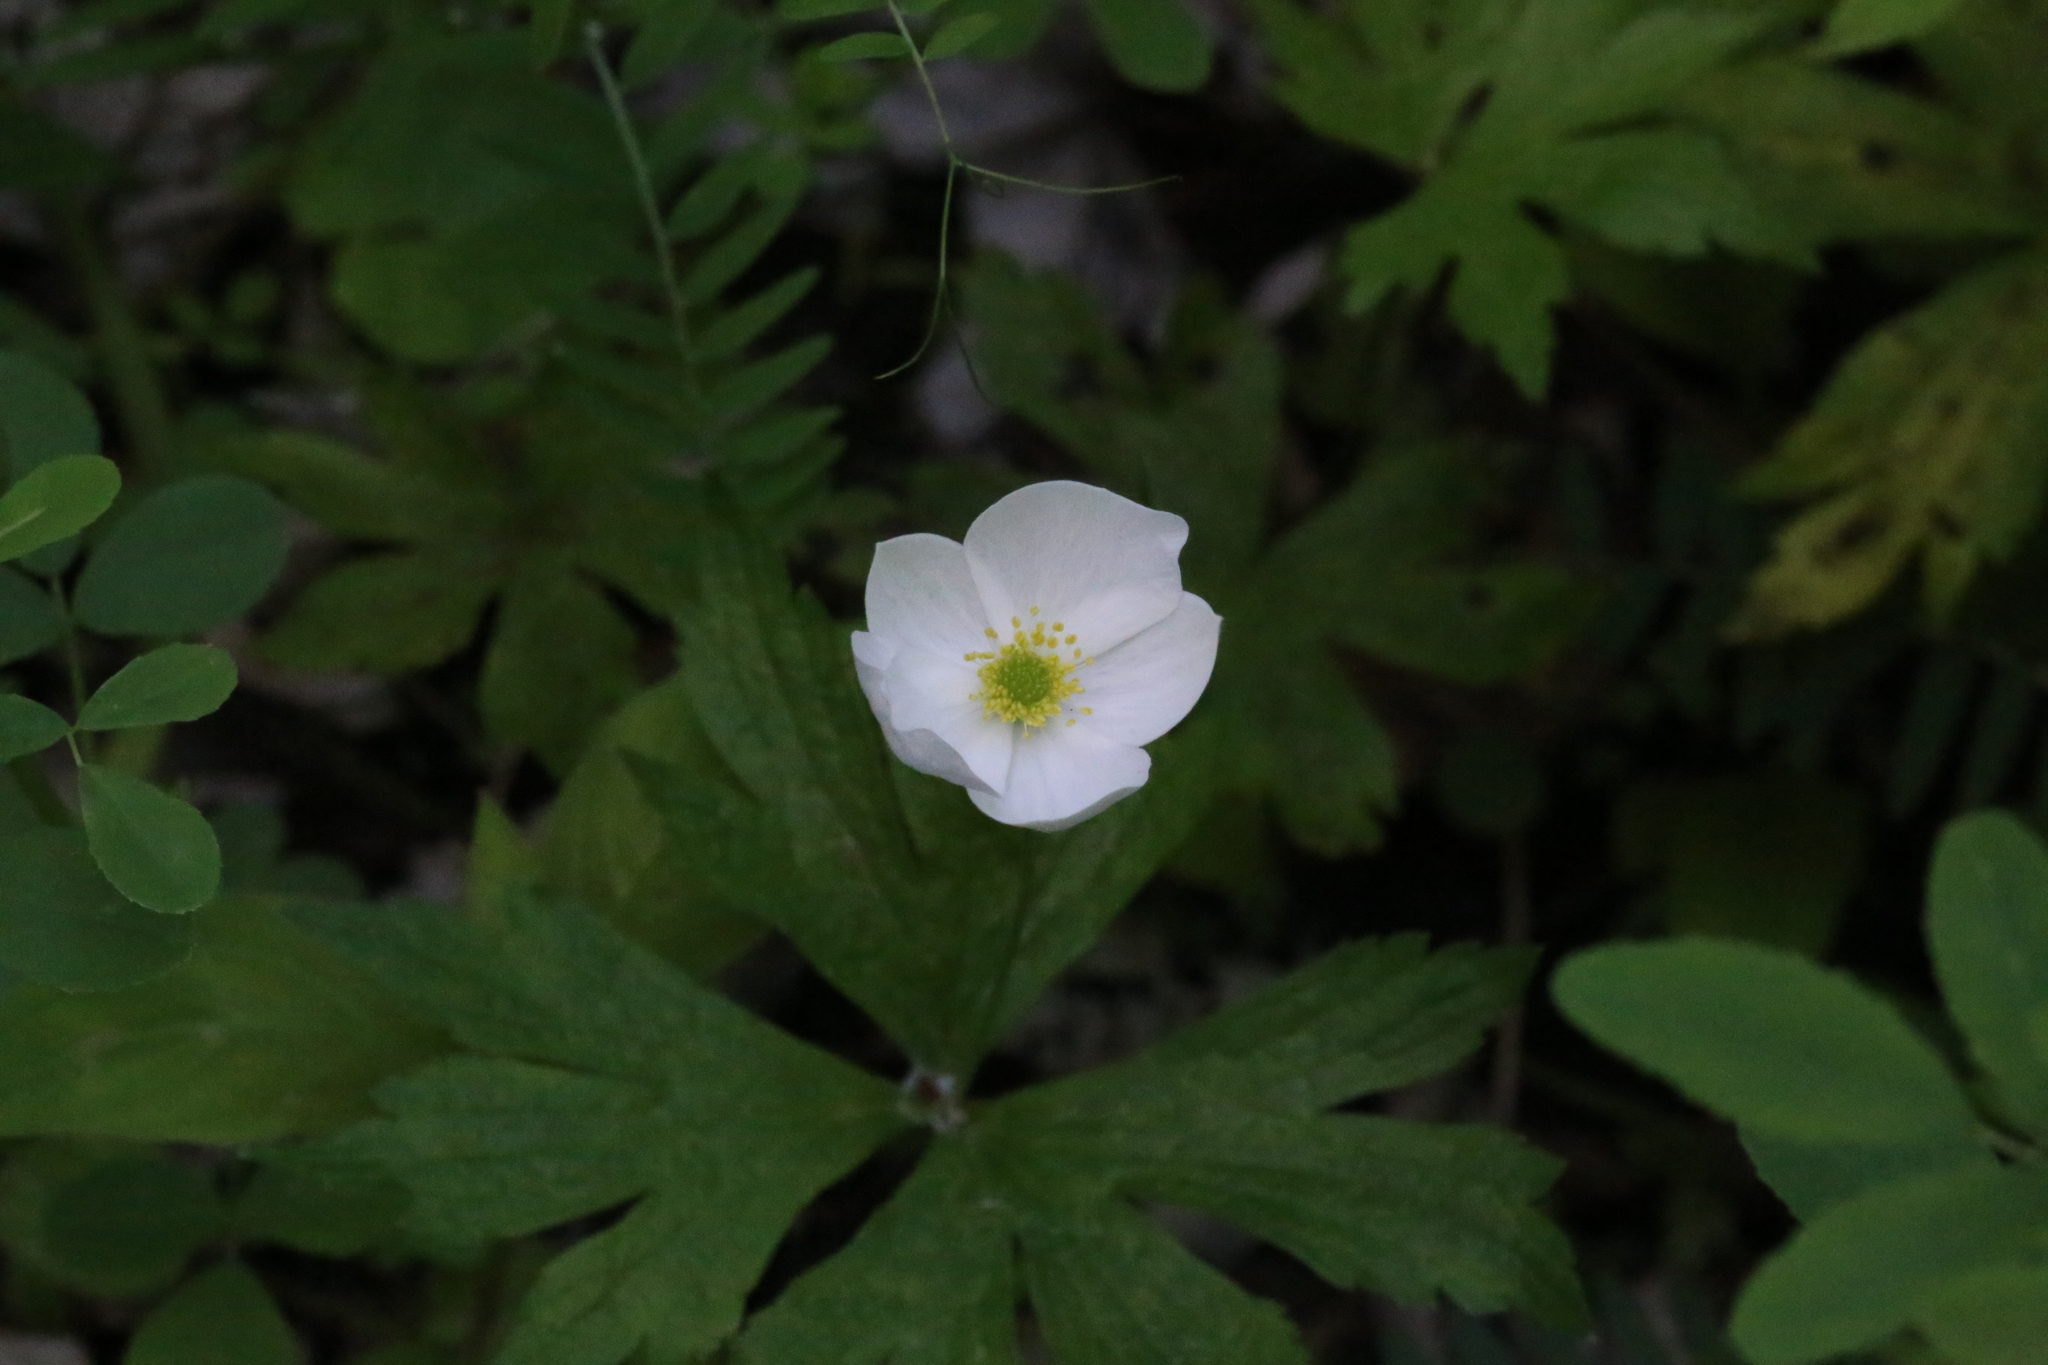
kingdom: Plantae
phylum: Tracheophyta
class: Magnoliopsida
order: Ranunculales
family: Ranunculaceae
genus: Anemonastrum
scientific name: Anemonastrum canadense
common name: Canada anemone
